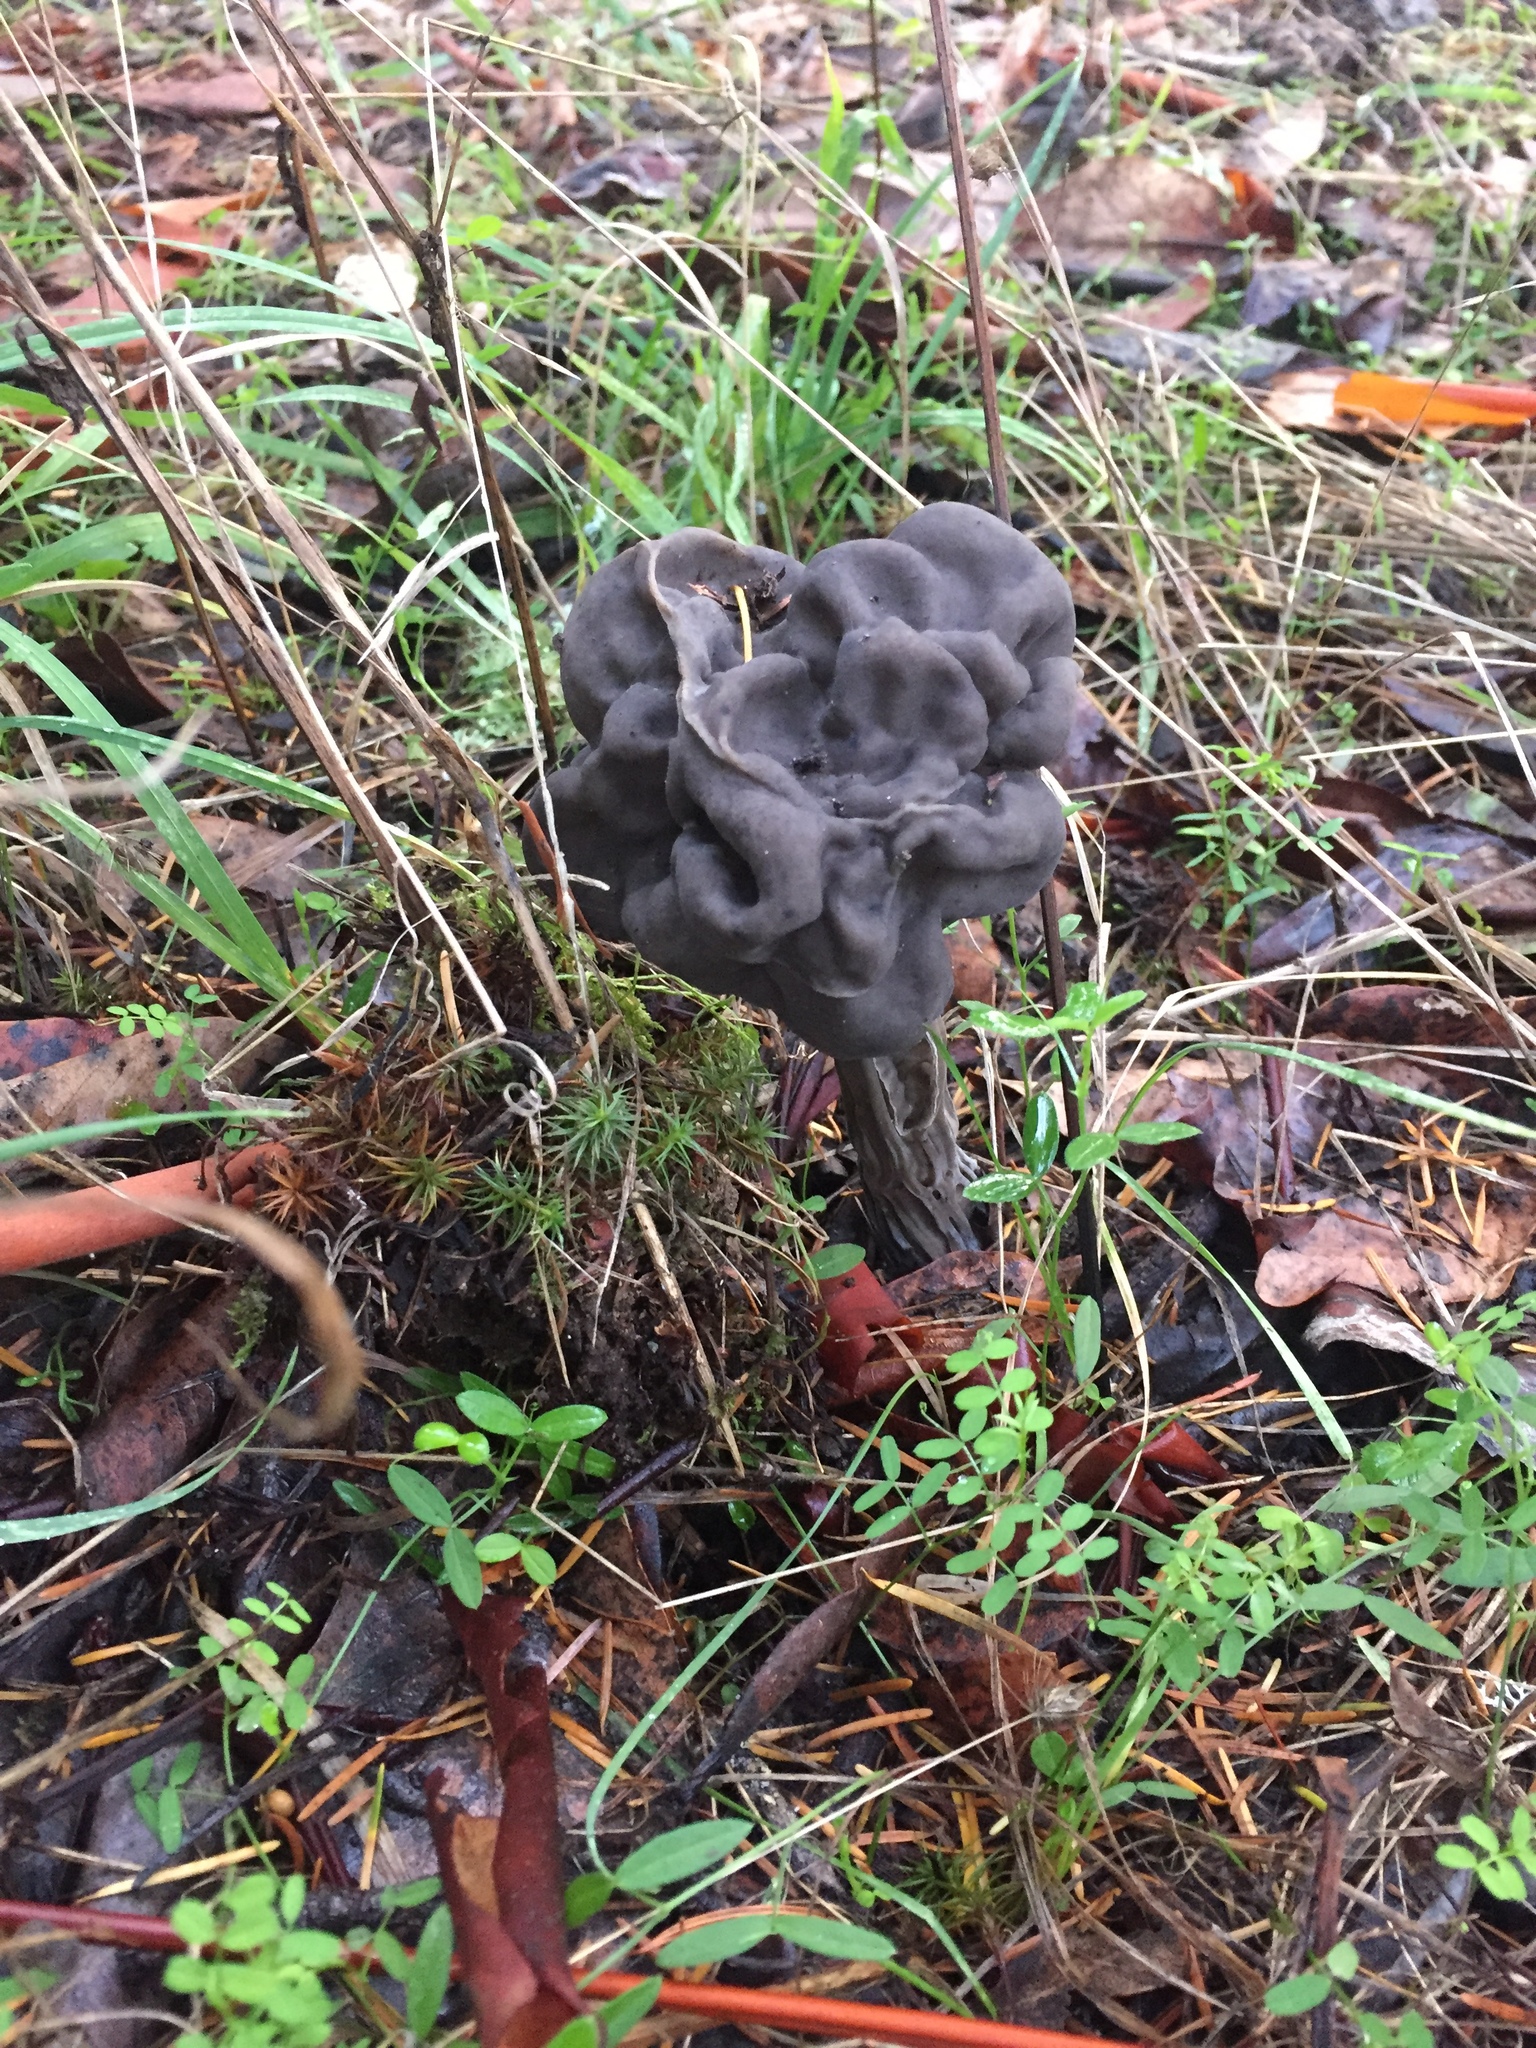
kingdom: Fungi
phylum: Ascomycota
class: Pezizomycetes
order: Pezizales
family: Helvellaceae
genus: Helvella
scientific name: Helvella vespertina
